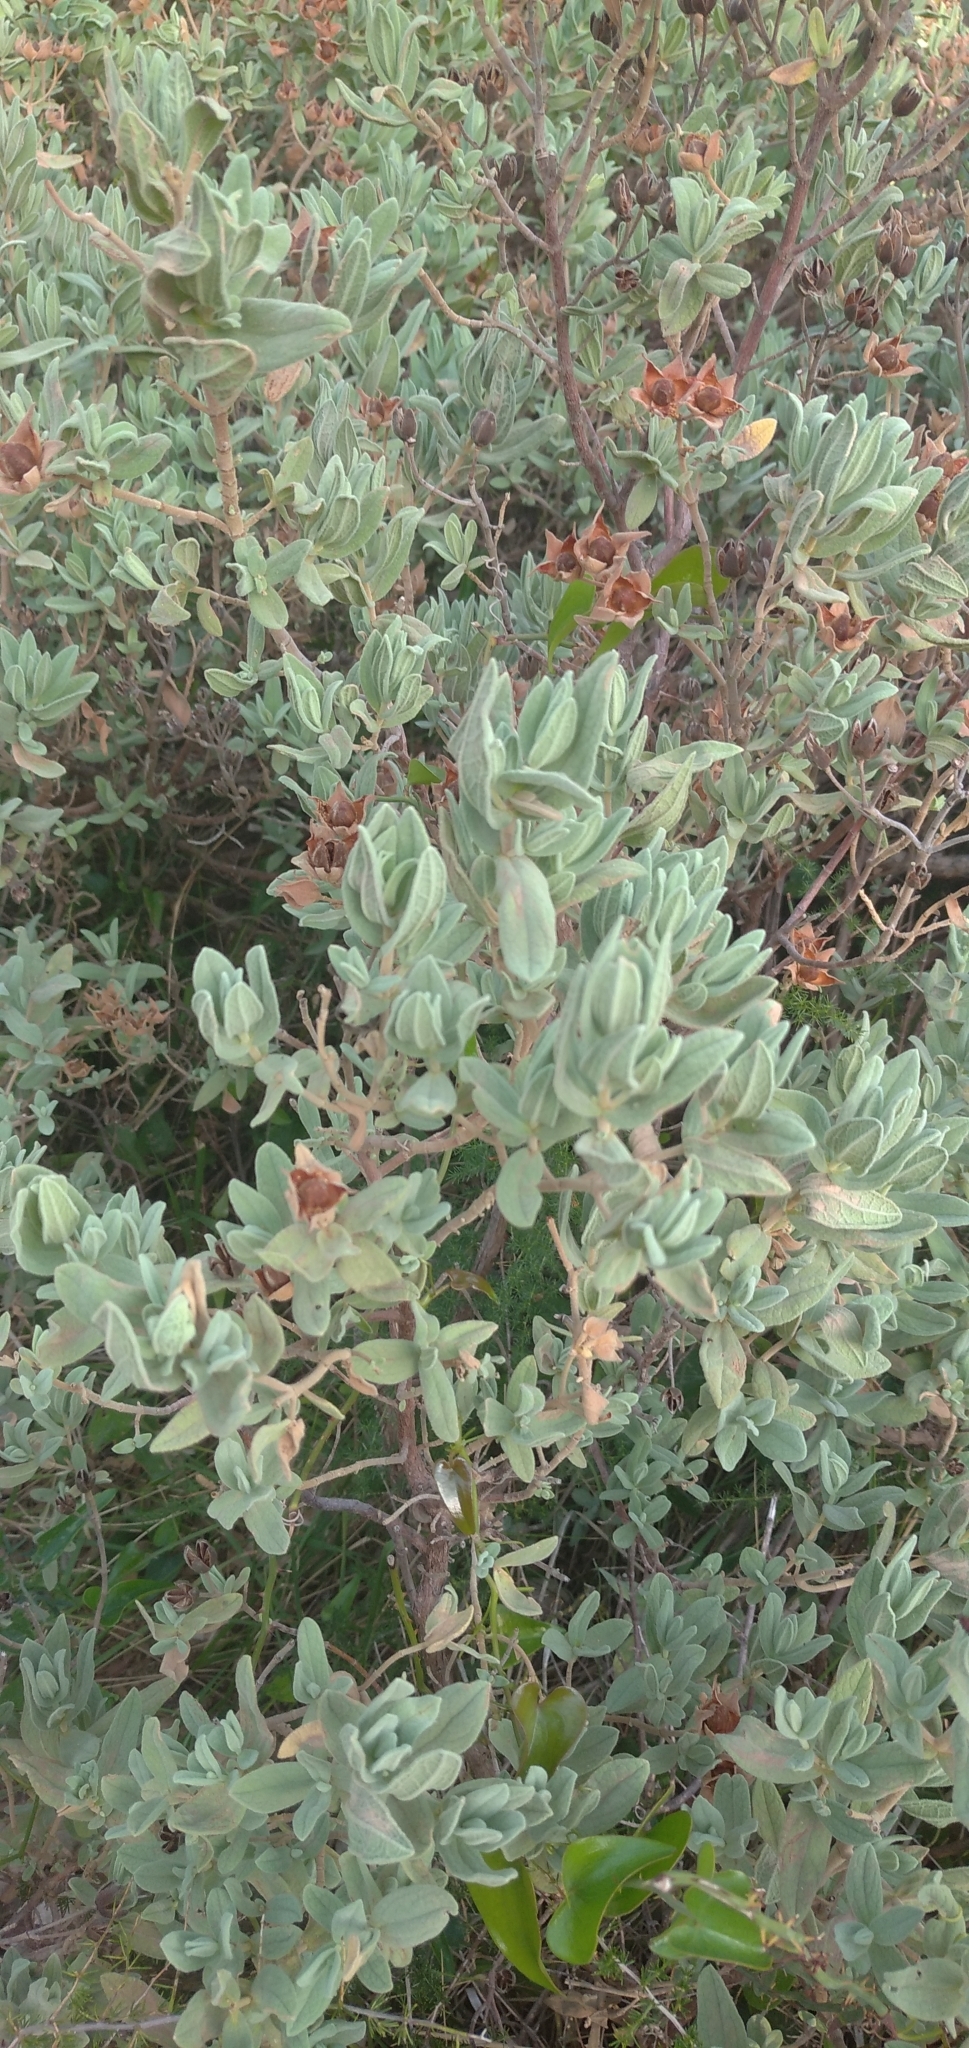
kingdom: Plantae
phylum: Tracheophyta
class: Magnoliopsida
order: Malvales
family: Cistaceae
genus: Cistus
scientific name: Cistus albidus
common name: White-leaf rock-rose
